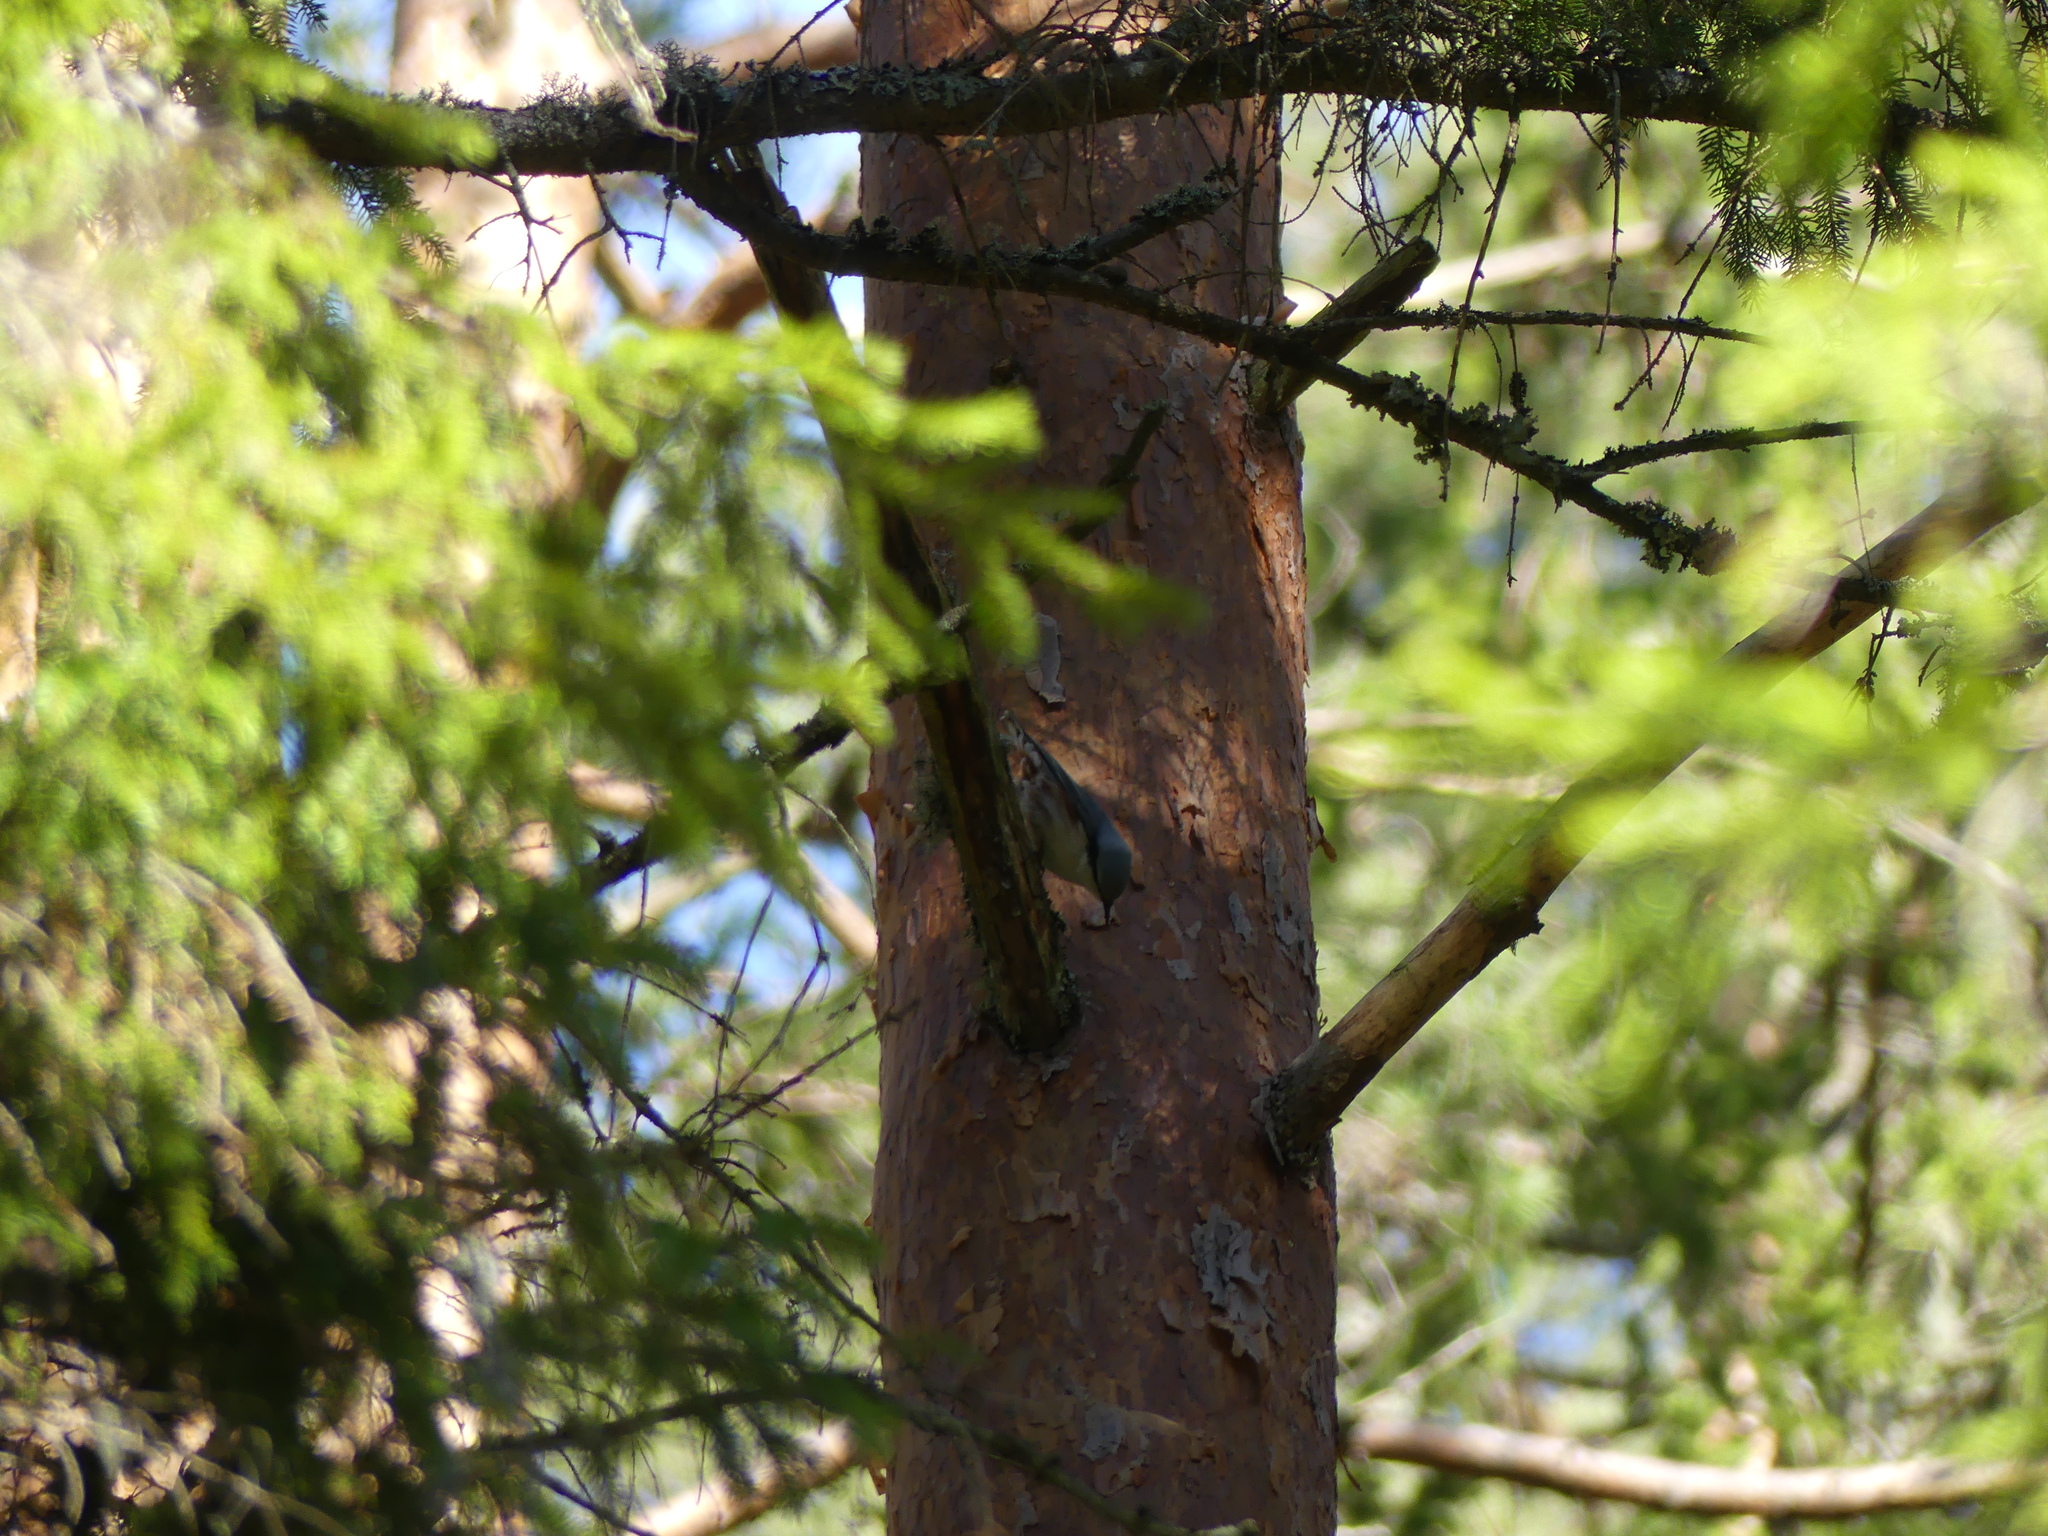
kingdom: Animalia
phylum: Chordata
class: Aves
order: Passeriformes
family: Sittidae
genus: Sitta
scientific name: Sitta europaea
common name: Eurasian nuthatch
